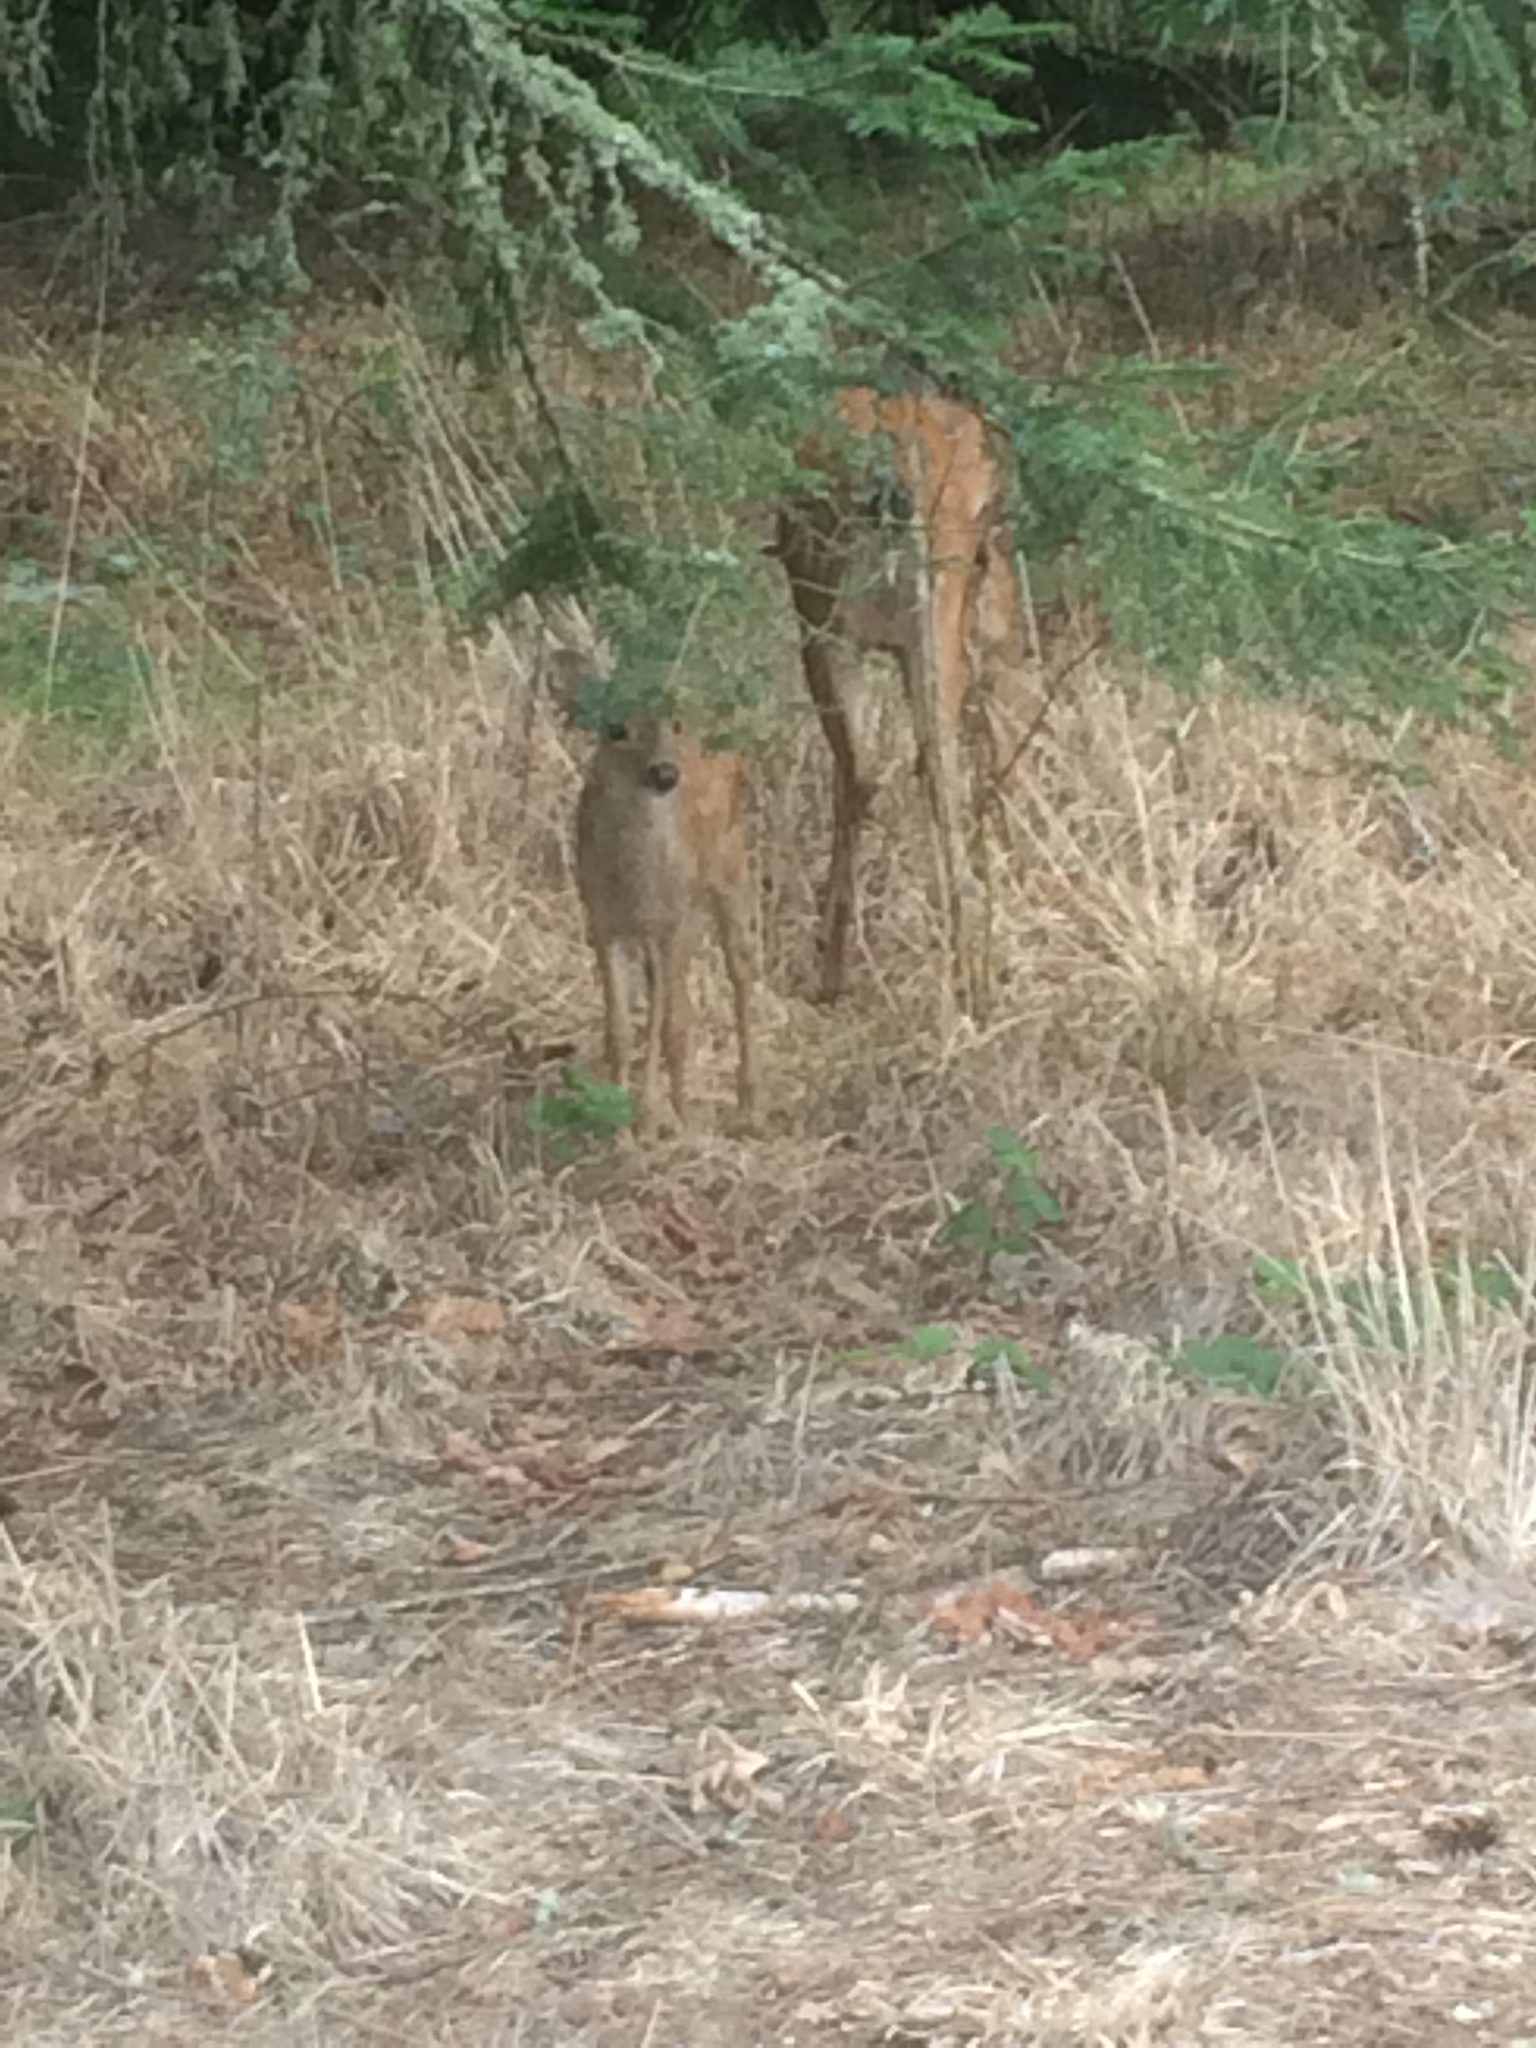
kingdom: Animalia
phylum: Chordata
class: Mammalia
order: Artiodactyla
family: Cervidae
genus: Odocoileus
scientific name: Odocoileus hemionus
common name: Mule deer
